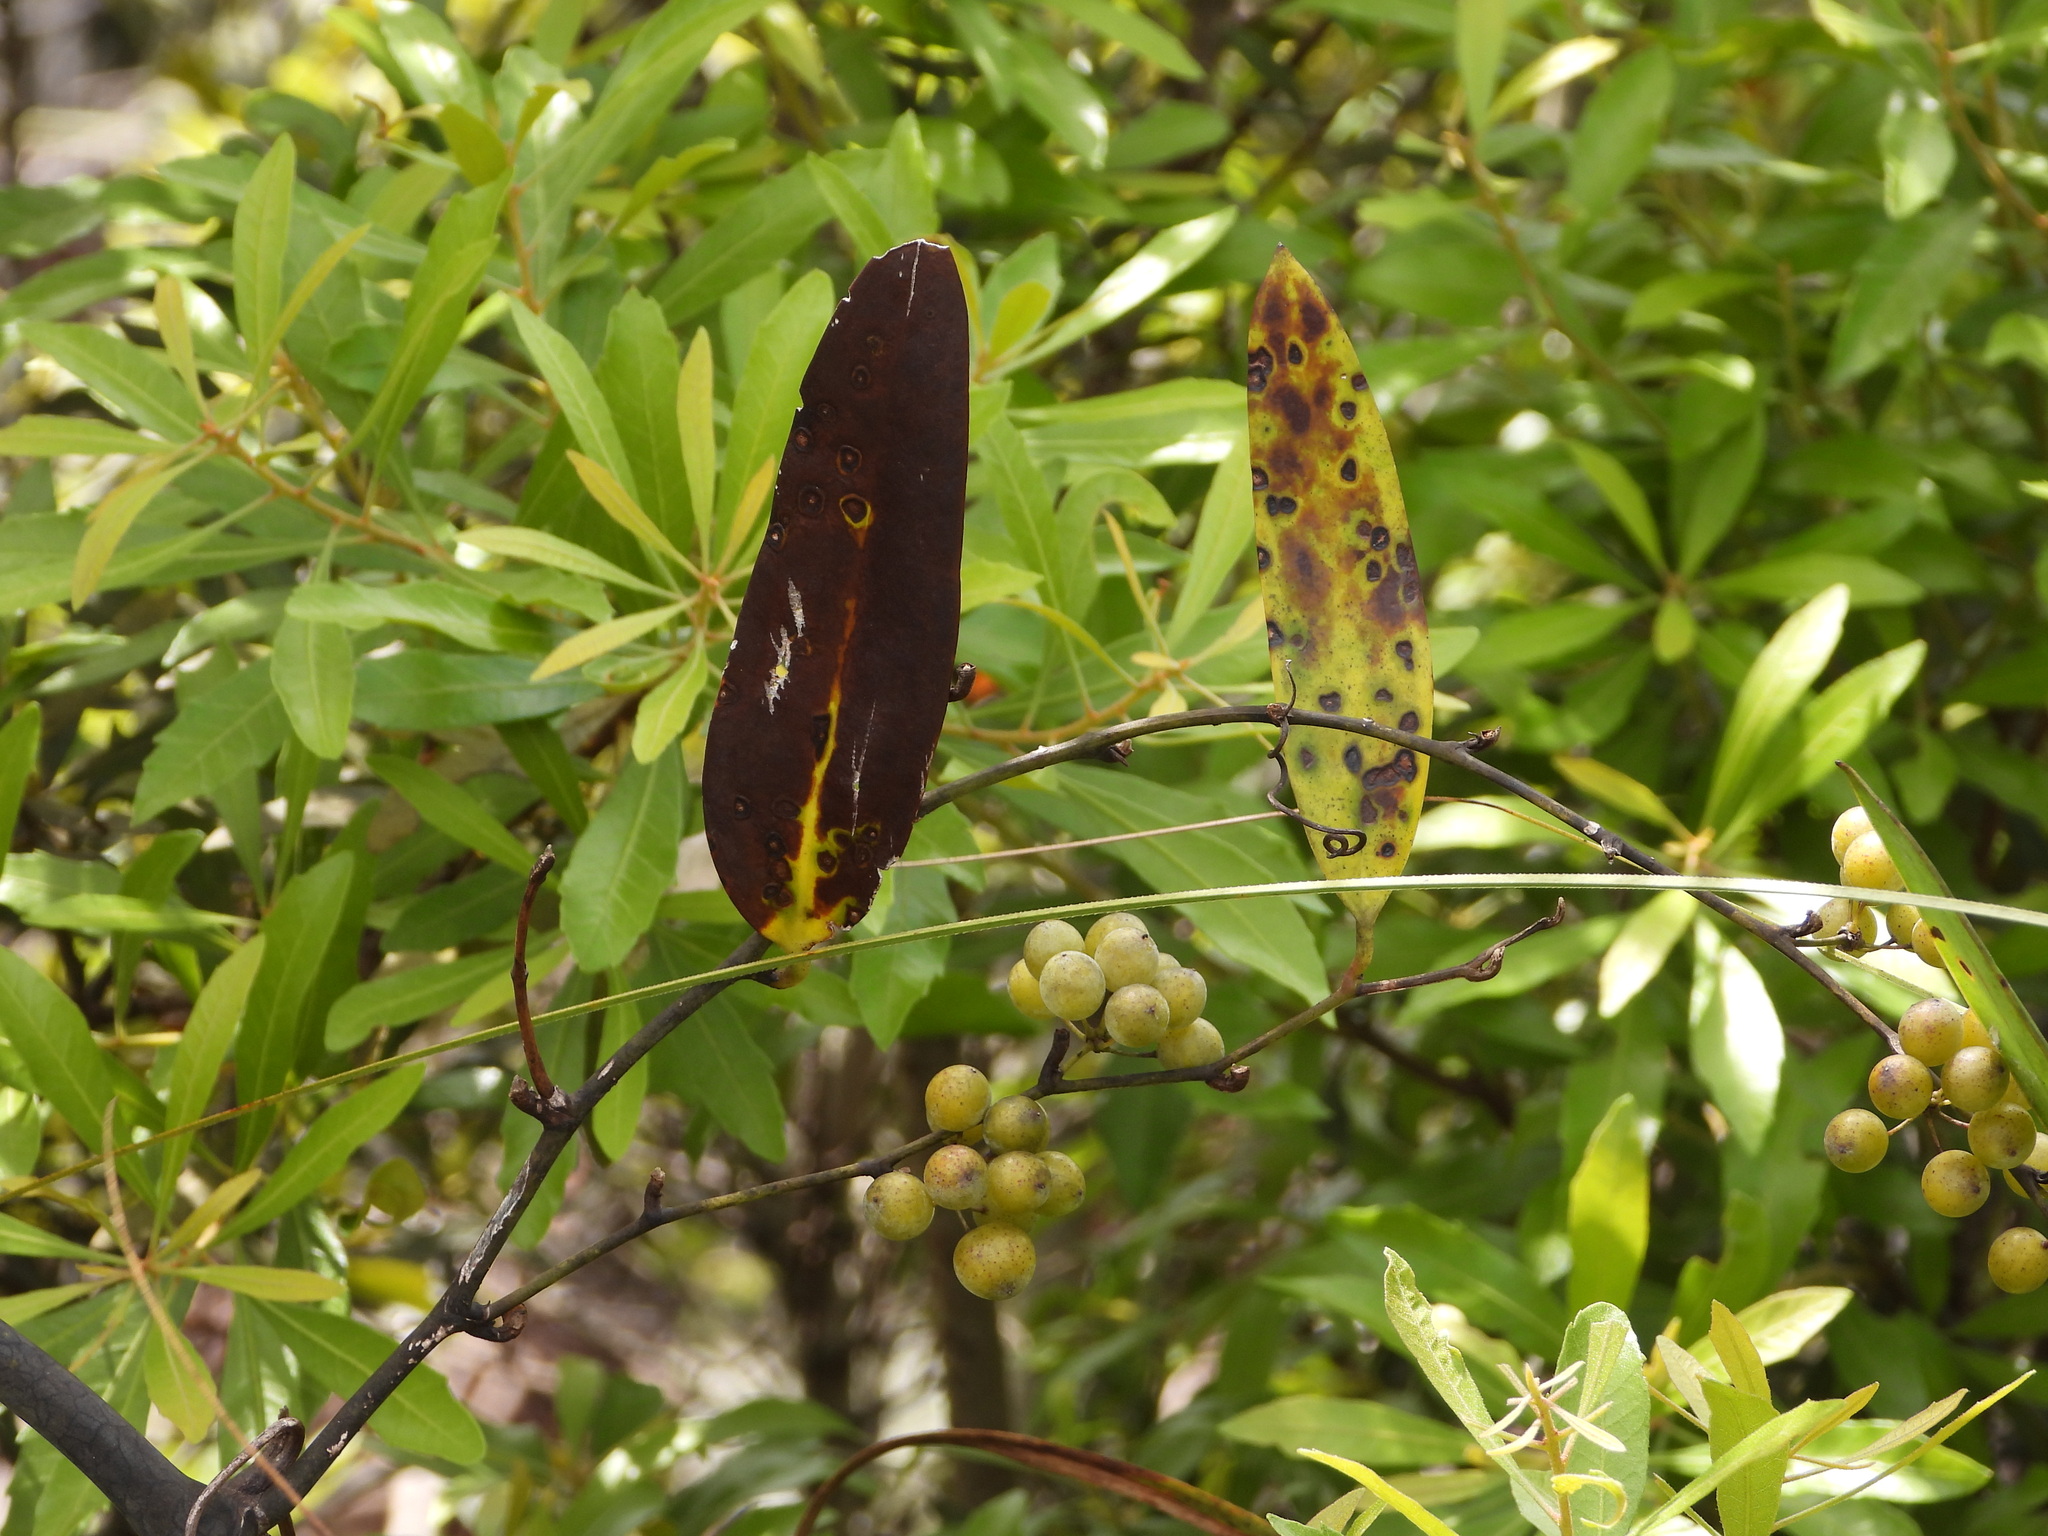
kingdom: Plantae
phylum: Tracheophyta
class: Liliopsida
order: Liliales
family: Smilacaceae
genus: Smilax
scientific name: Smilax laurifolia
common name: Bamboovine
